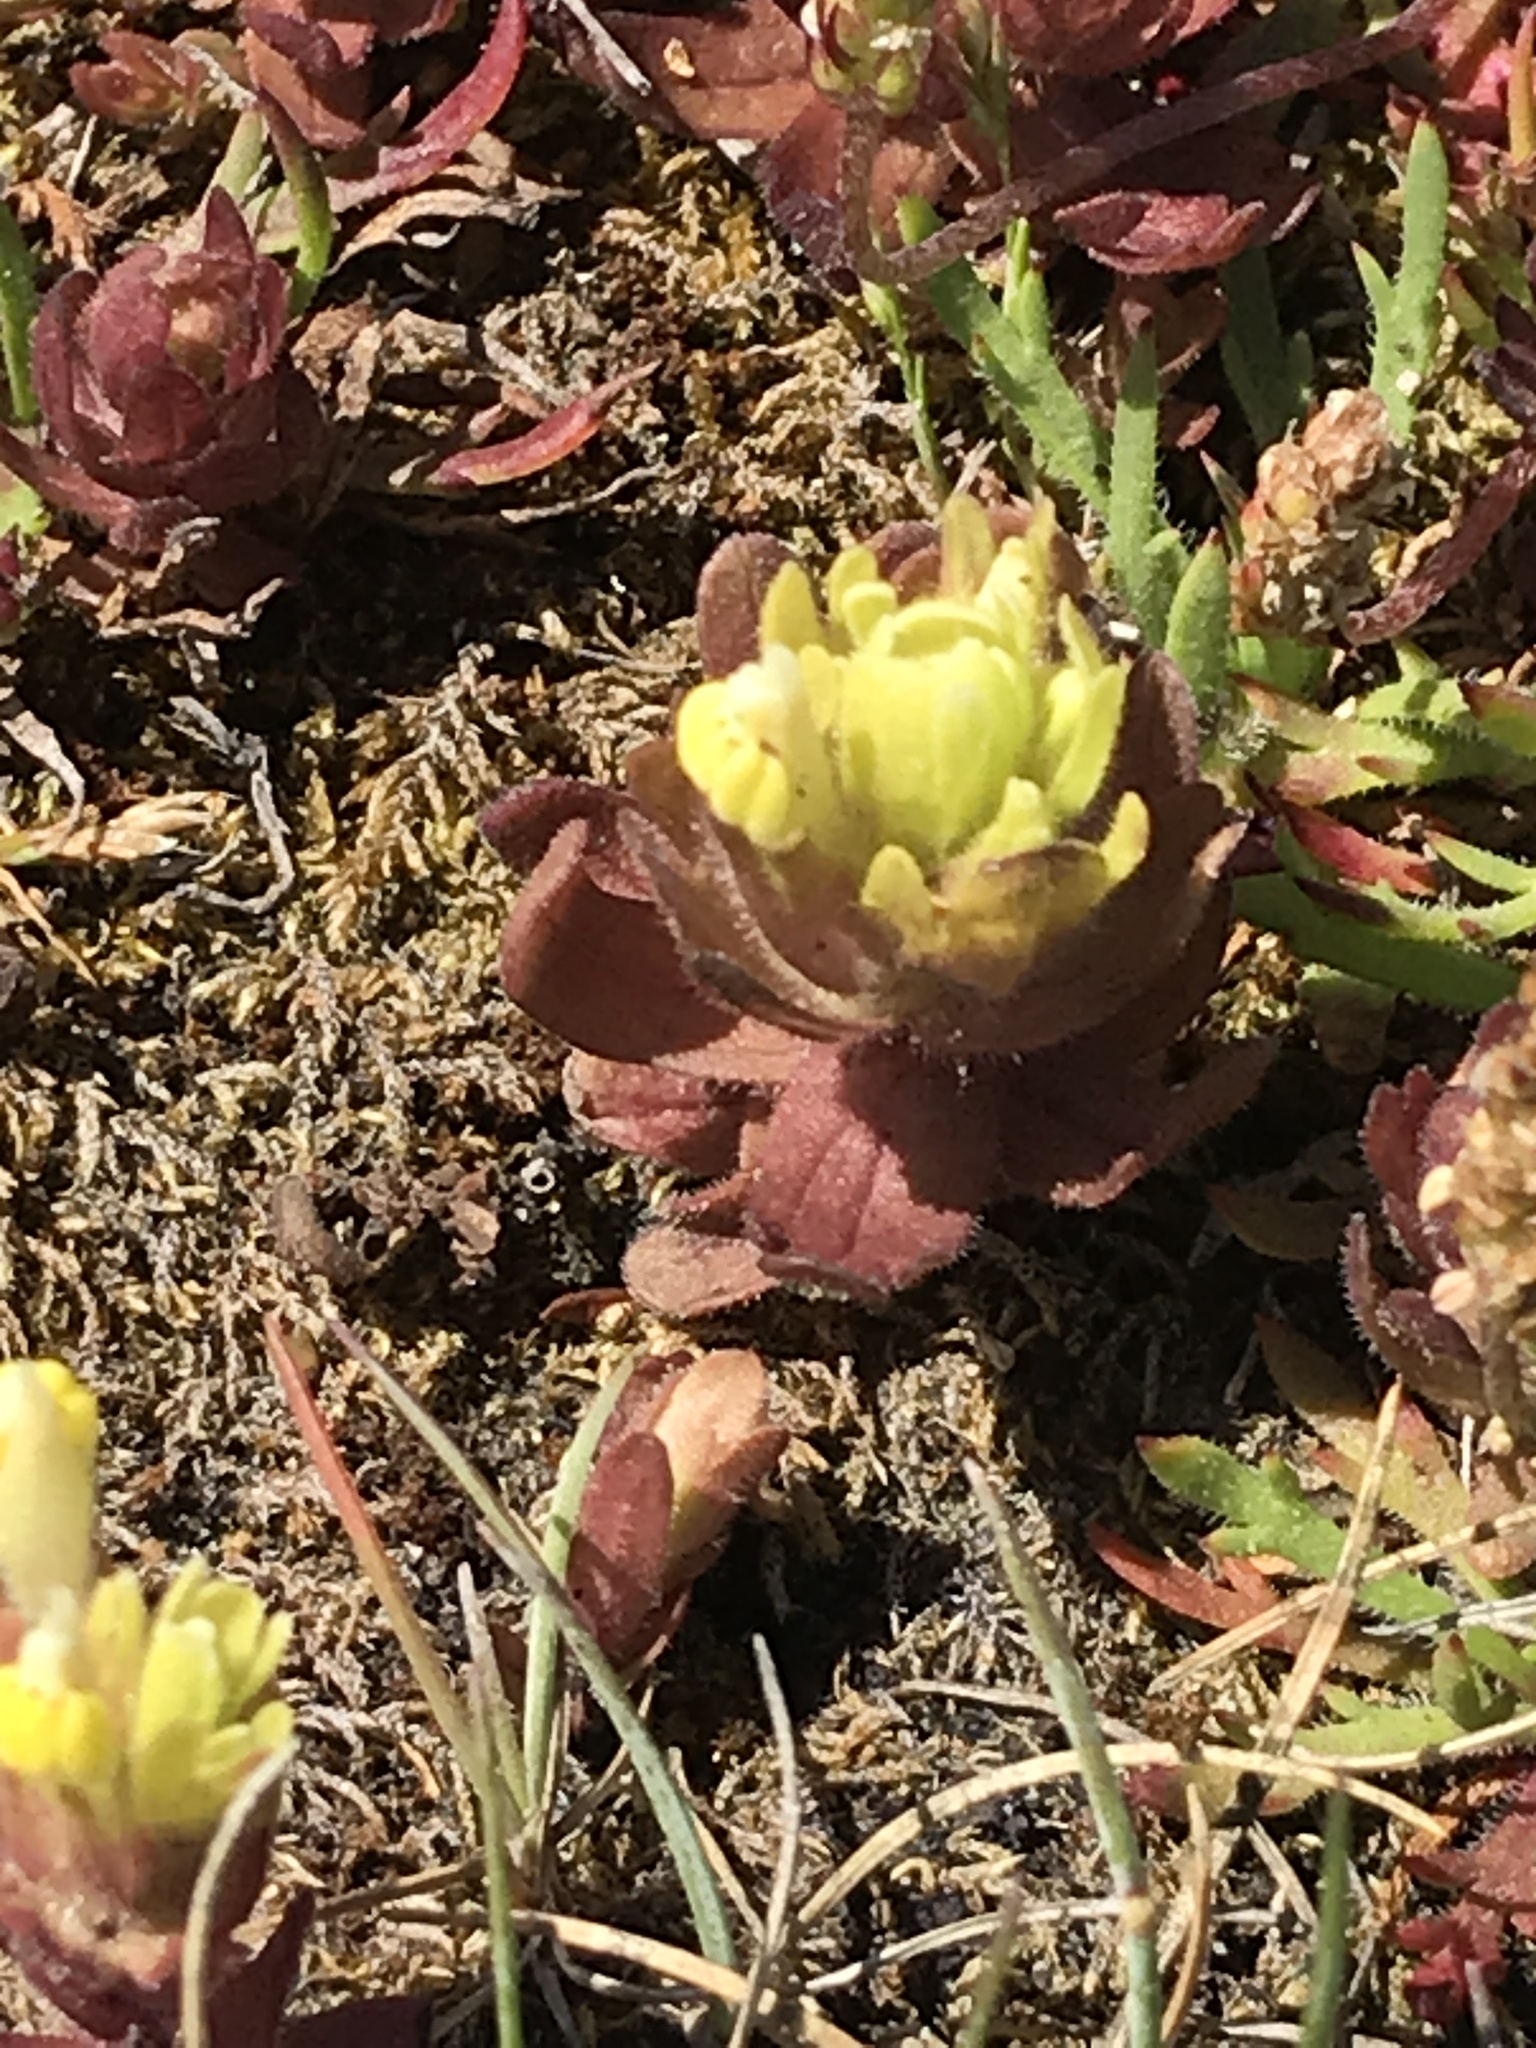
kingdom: Plantae
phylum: Tracheophyta
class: Magnoliopsida
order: Lamiales
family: Orobanchaceae
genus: Castilleja
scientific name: Castilleja ambigua
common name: Johnny-nip
